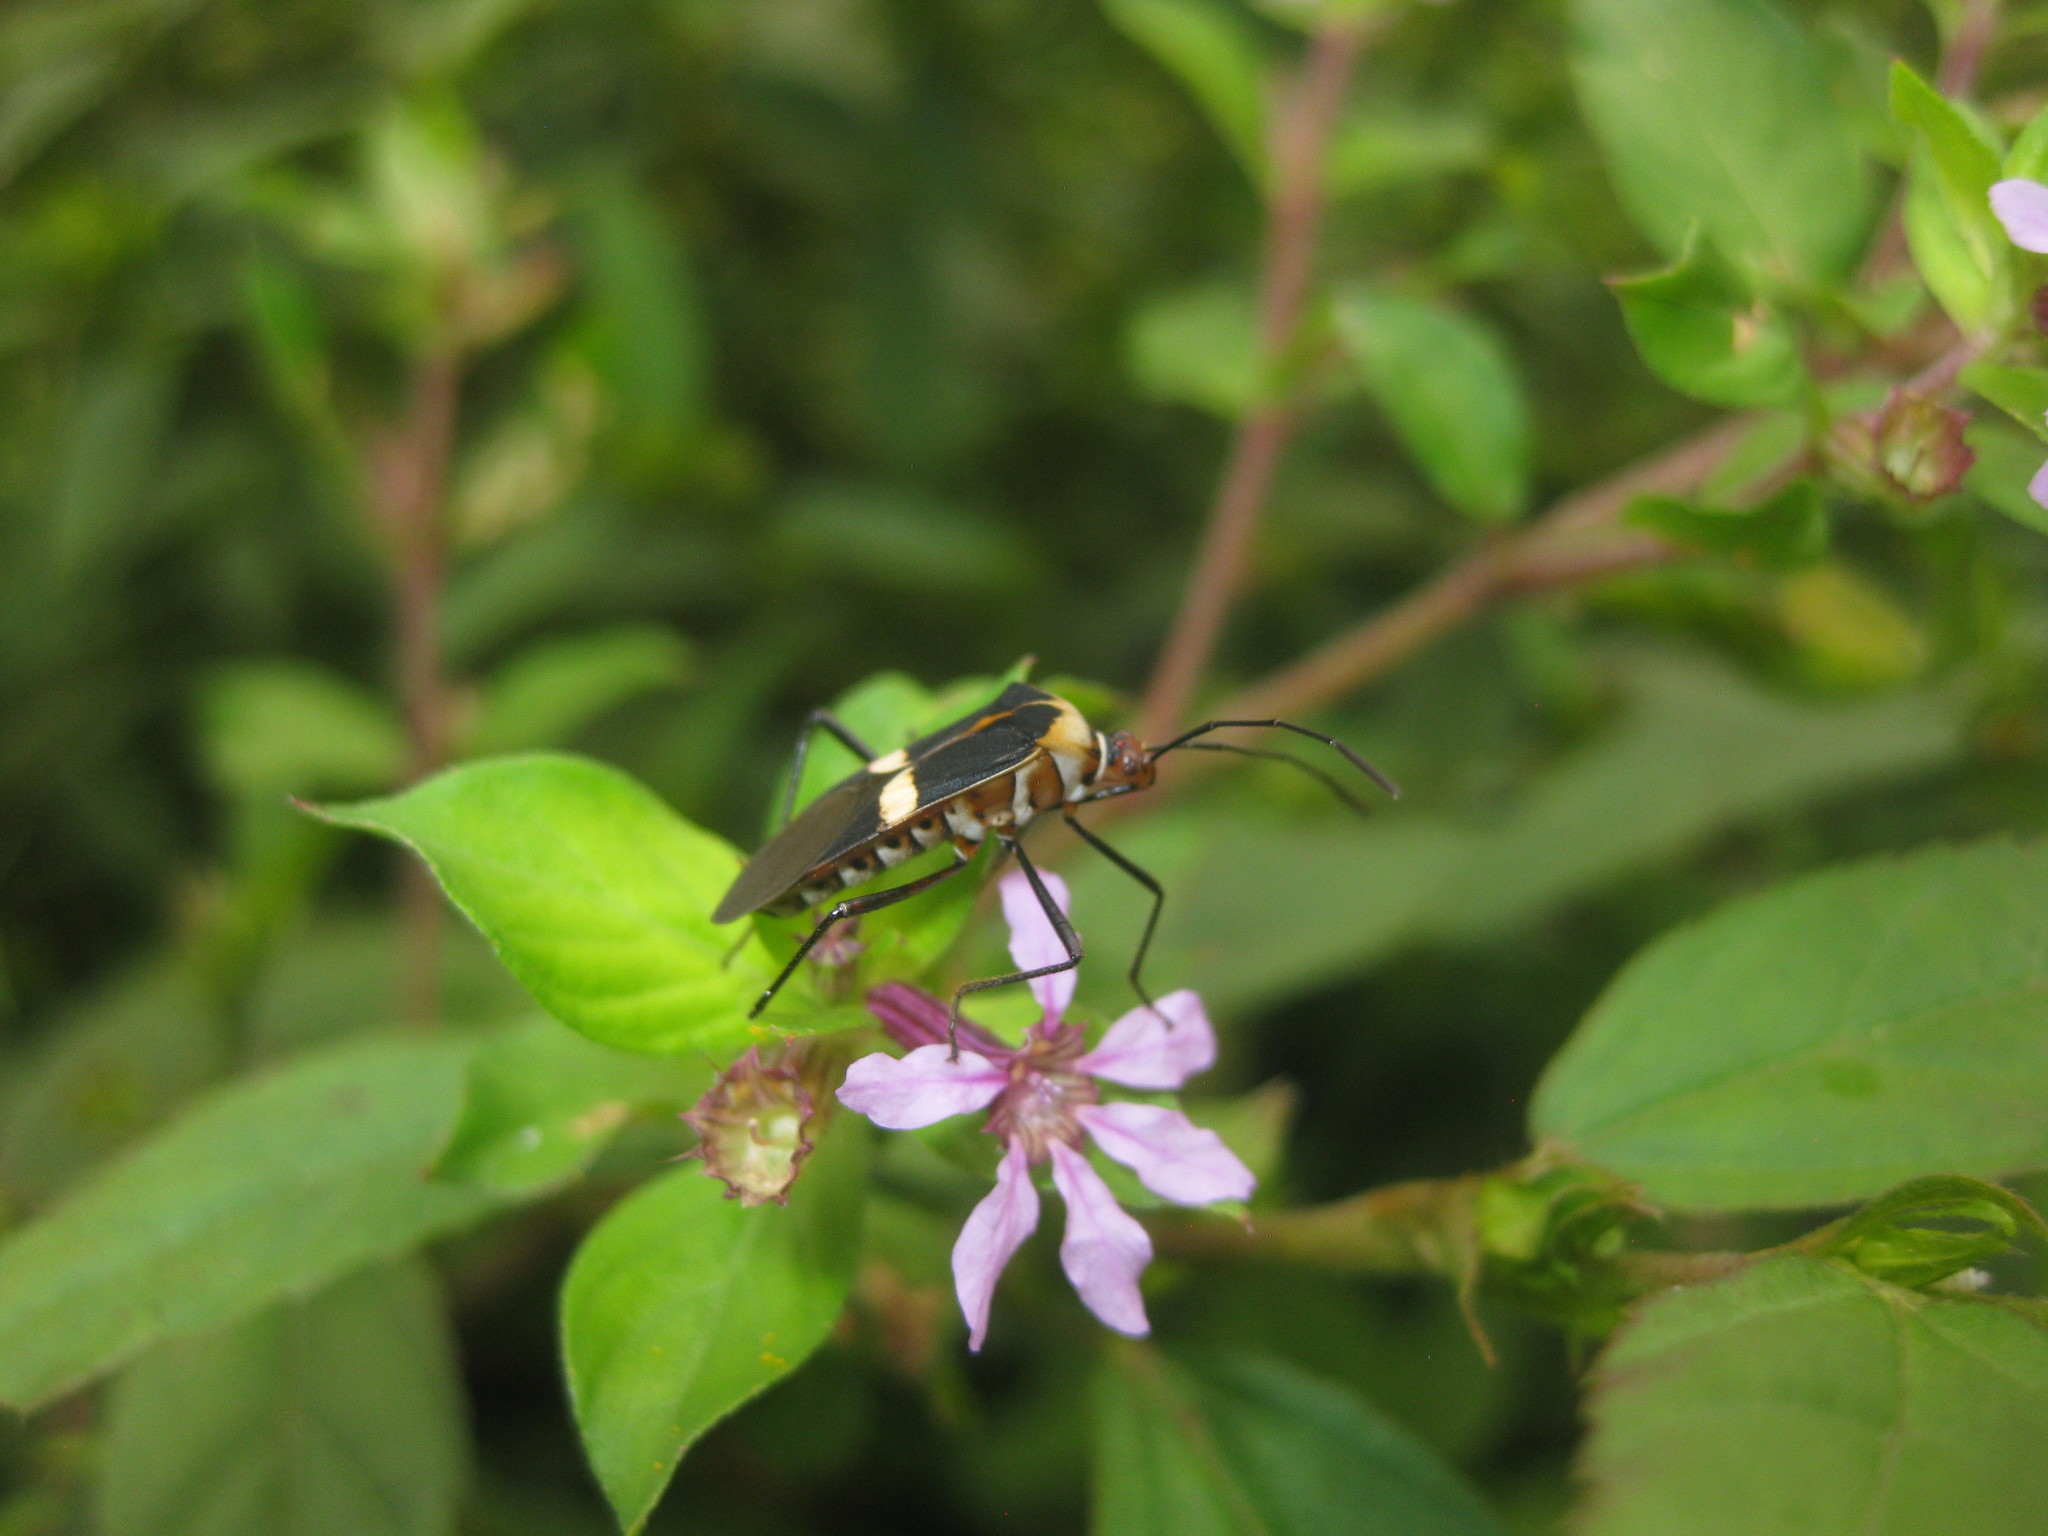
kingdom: Animalia
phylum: Arthropoda
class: Insecta
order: Hemiptera
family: Coreidae
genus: Hypselonotus
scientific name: Hypselonotus interruptus
